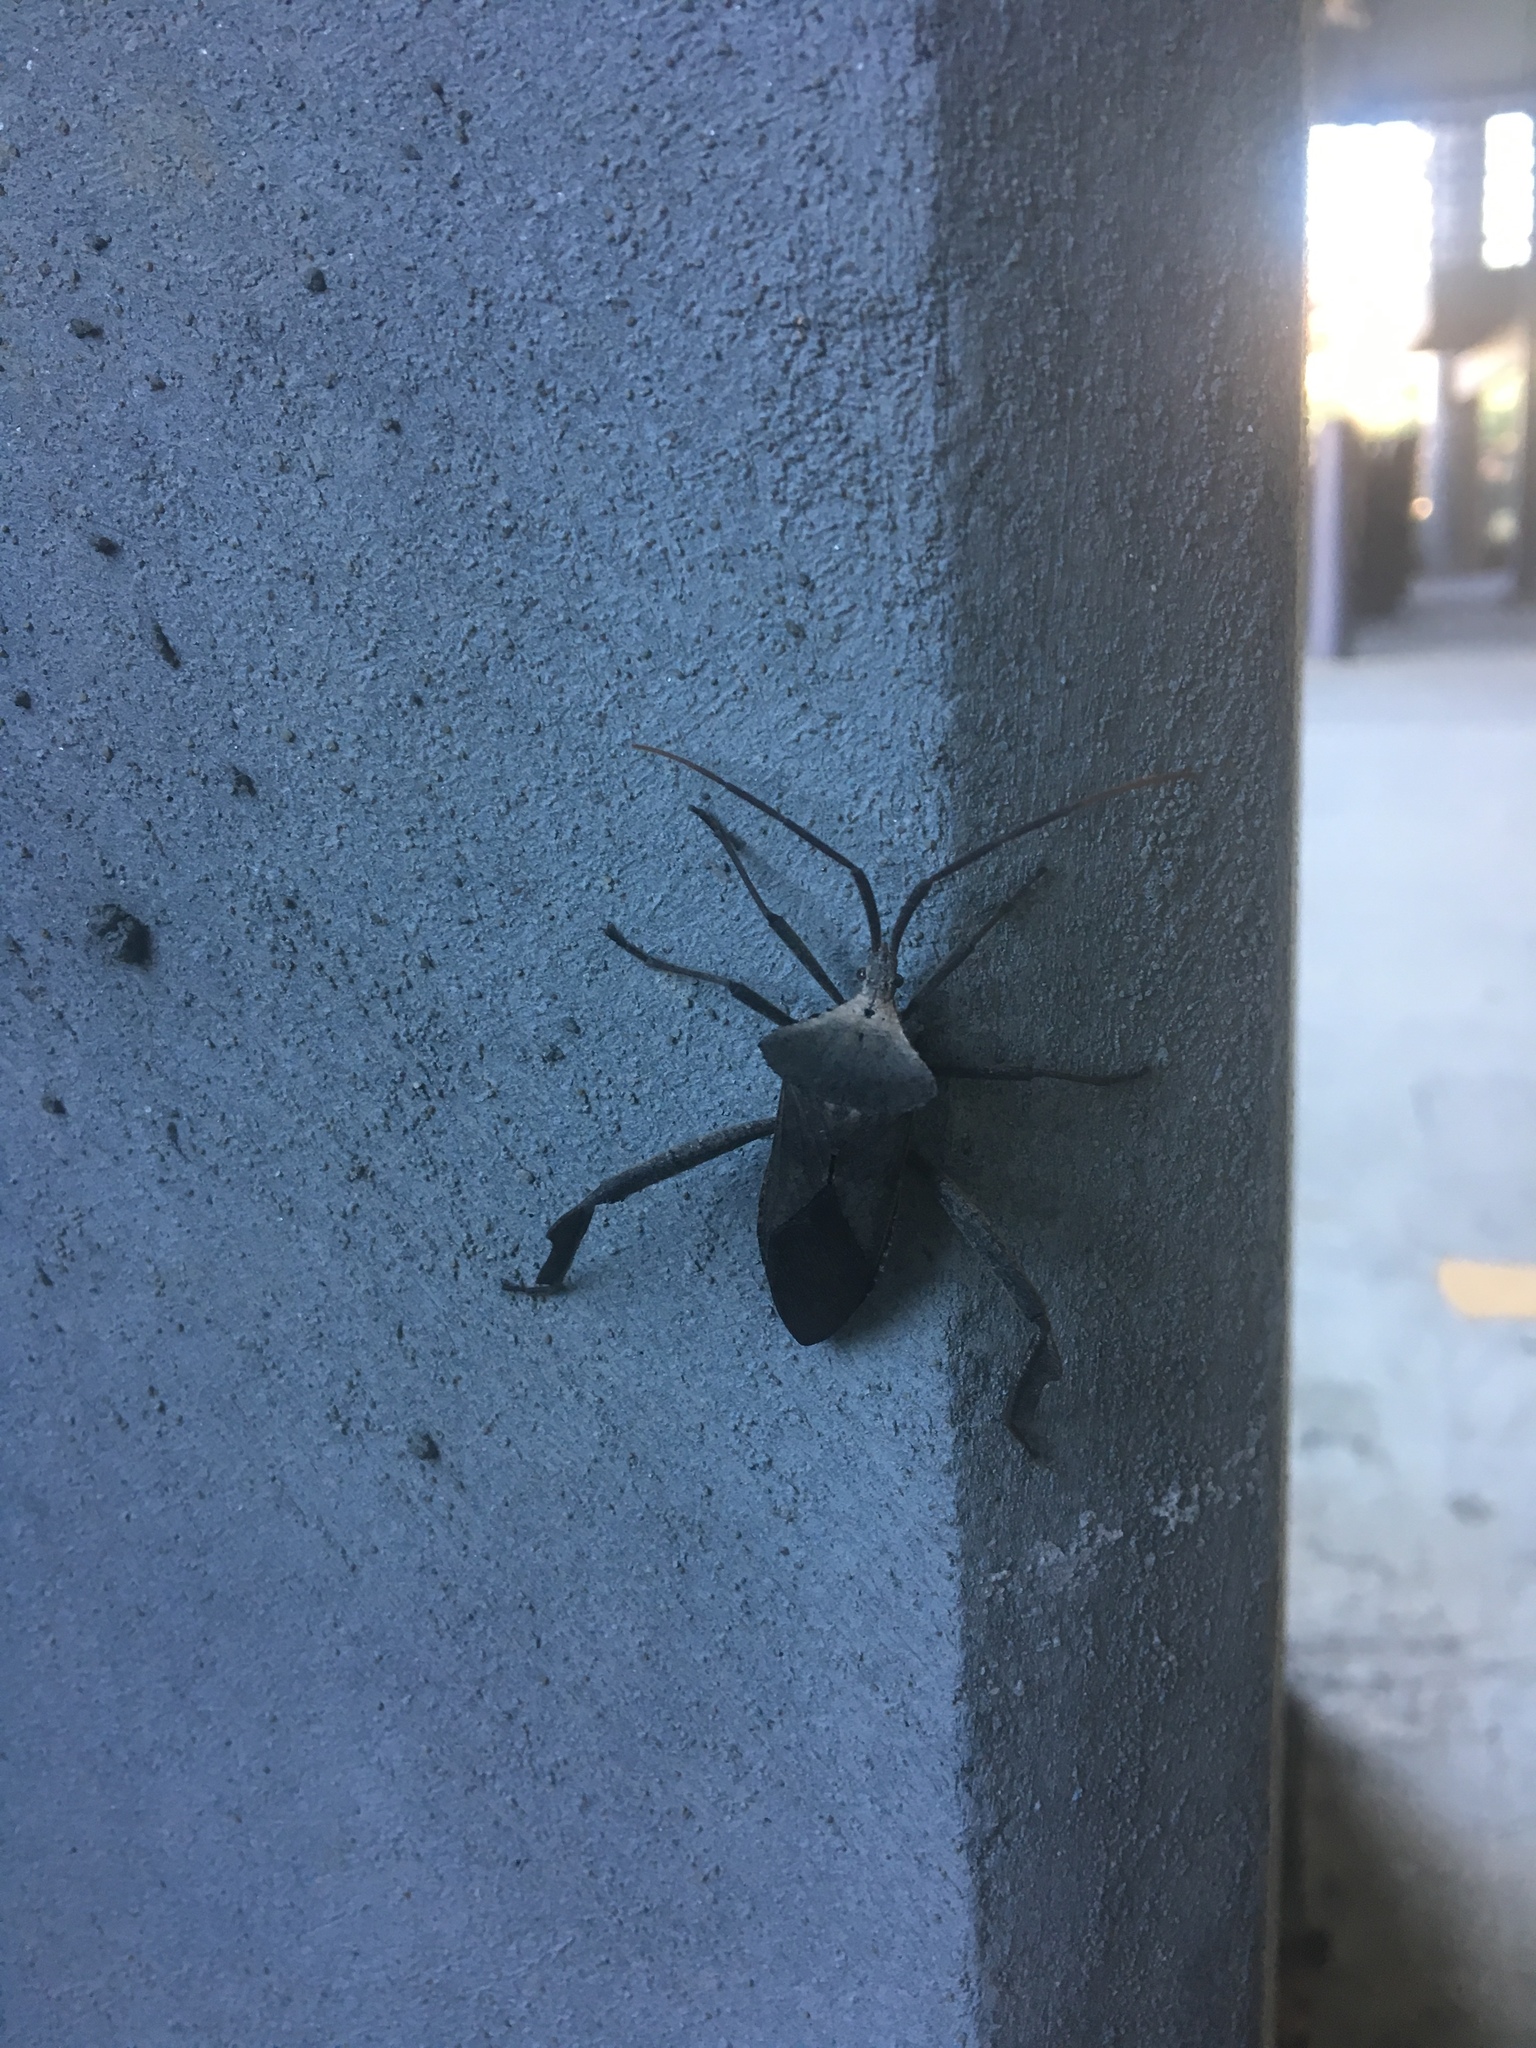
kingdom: Animalia
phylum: Arthropoda
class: Insecta
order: Hemiptera
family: Coreidae
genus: Acanthocephala
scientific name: Acanthocephala declivis
